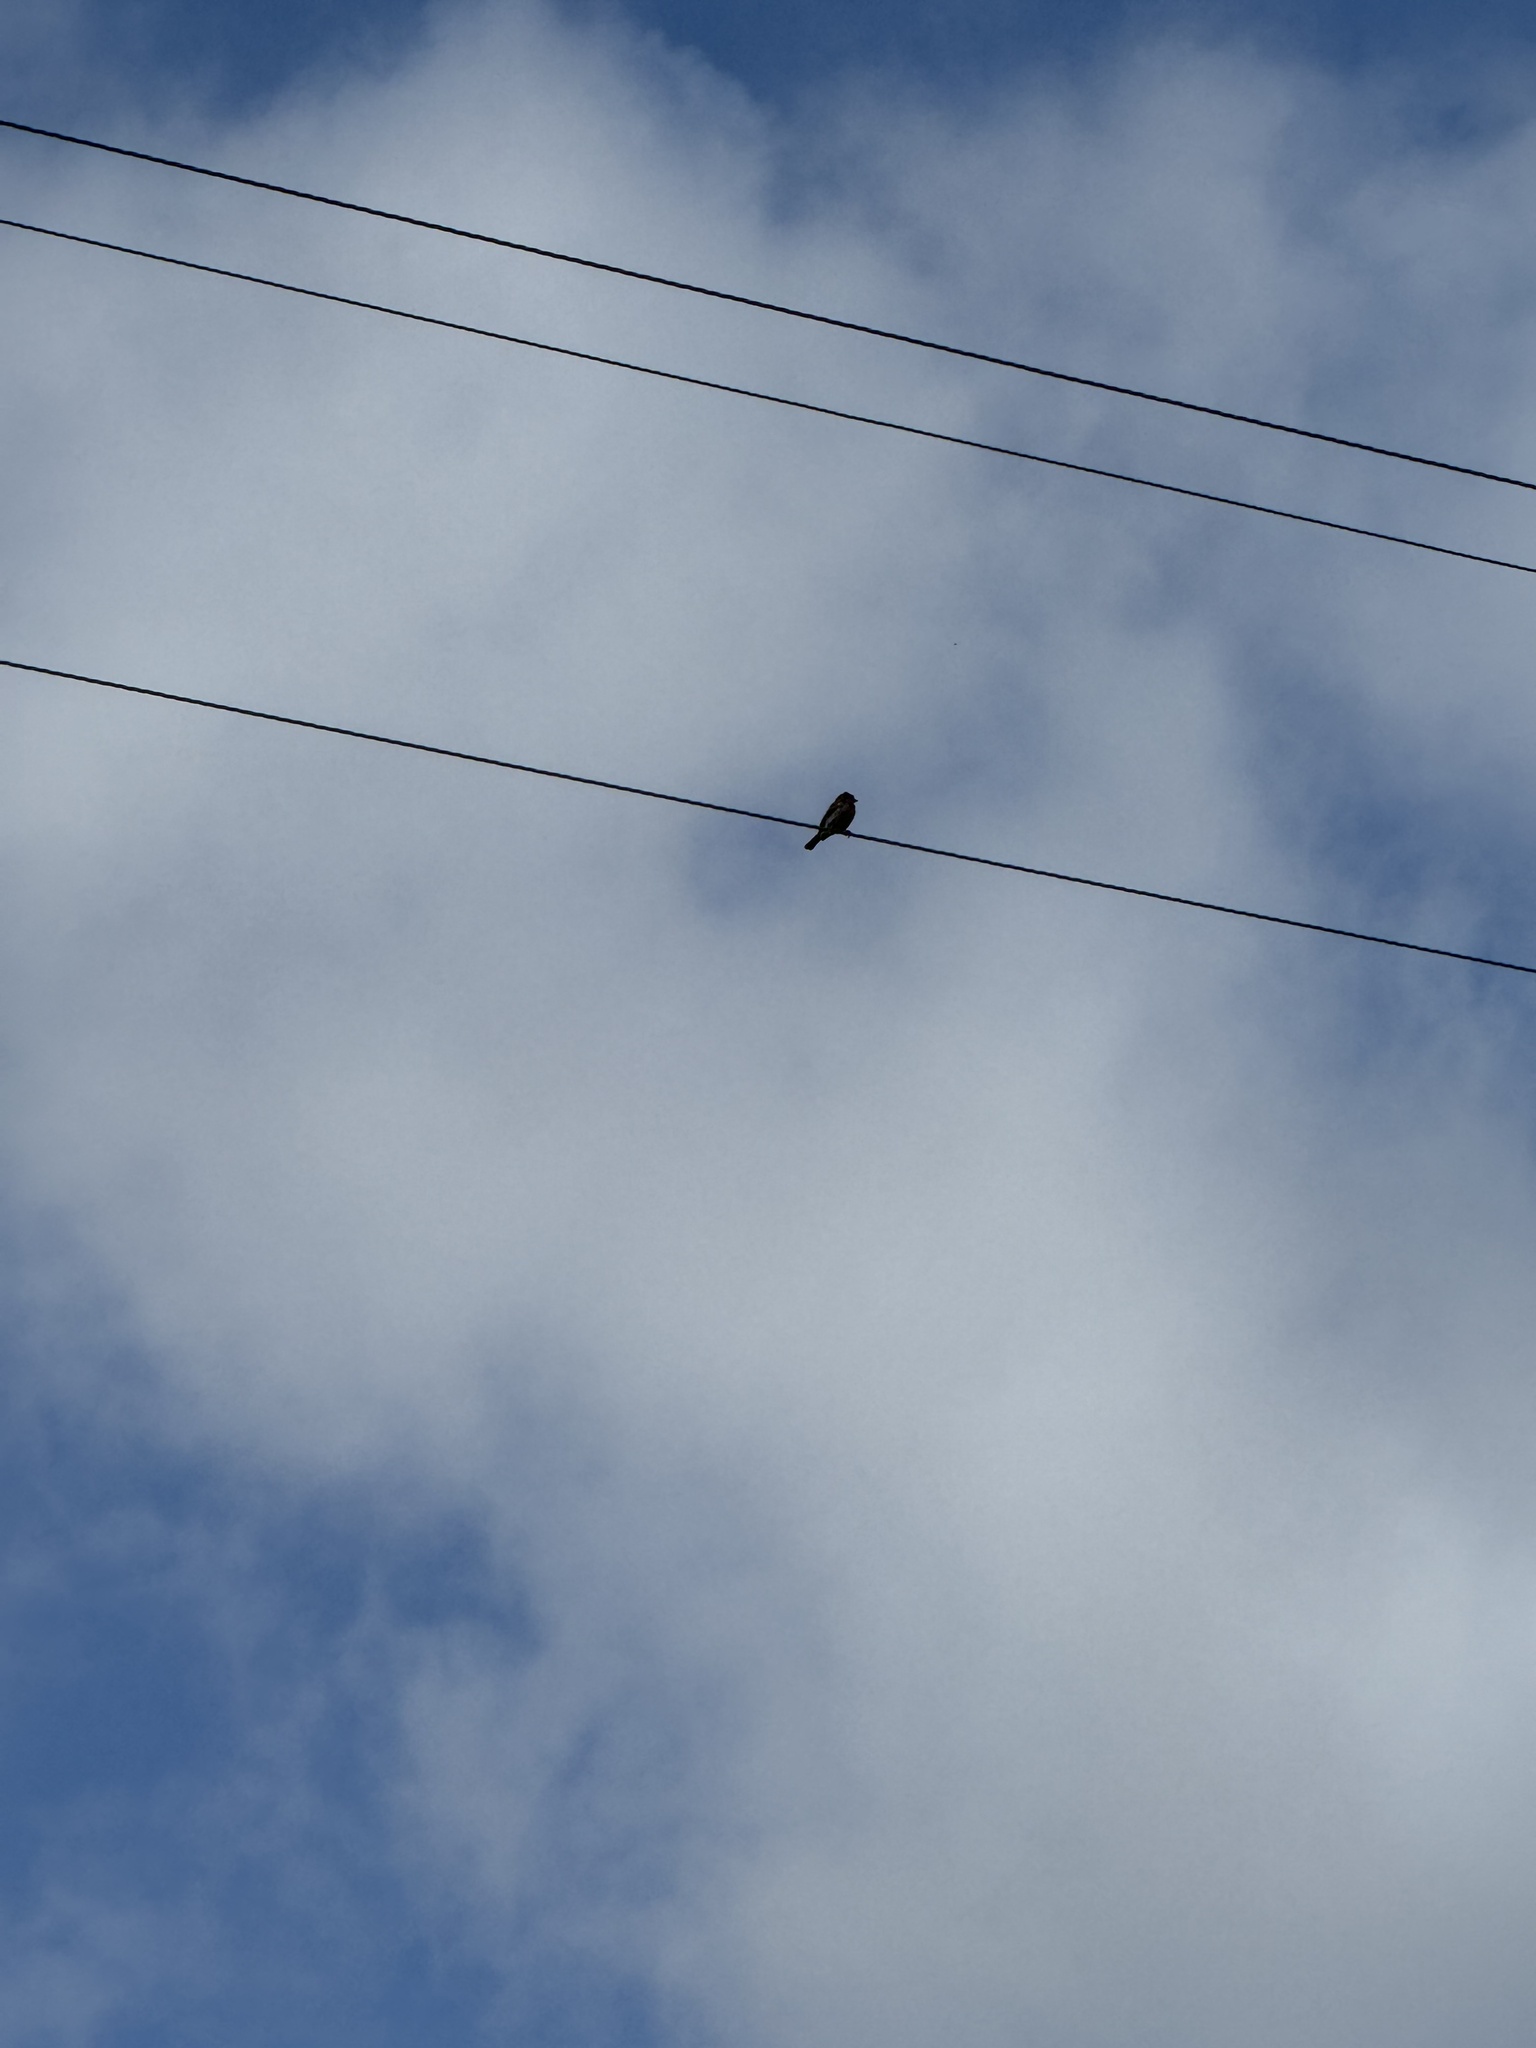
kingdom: Animalia
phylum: Chordata
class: Aves
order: Passeriformes
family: Fringillidae
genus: Haemorhous
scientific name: Haemorhous mexicanus
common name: House finch
